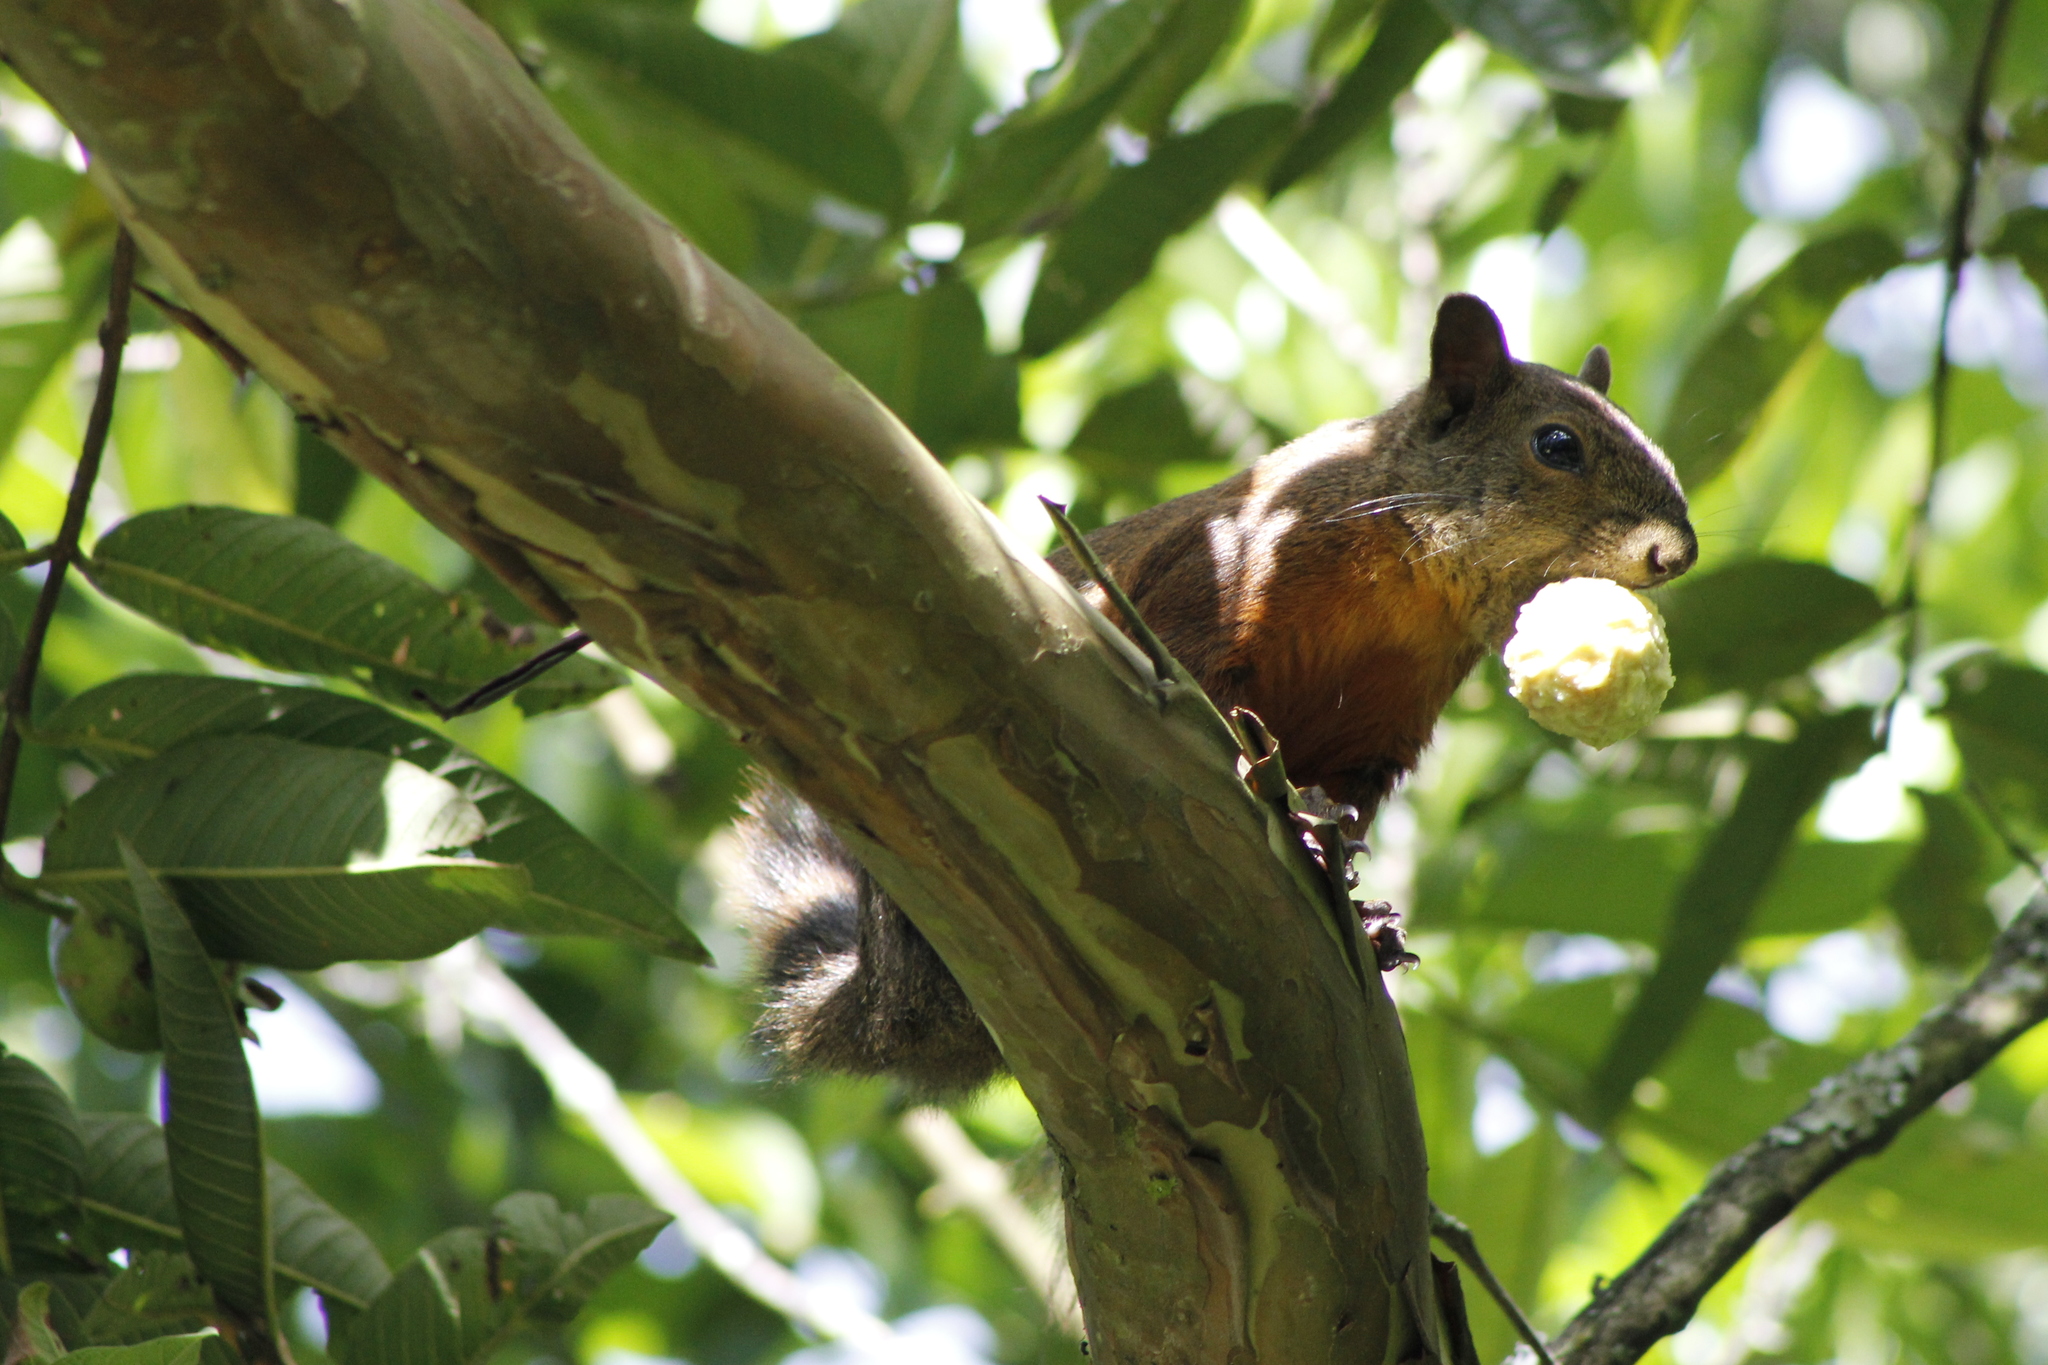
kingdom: Animalia
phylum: Chordata
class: Mammalia
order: Rodentia
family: Sciuridae
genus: Sciurus
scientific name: Sciurus granatensis
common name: Red-tailed squirrel
